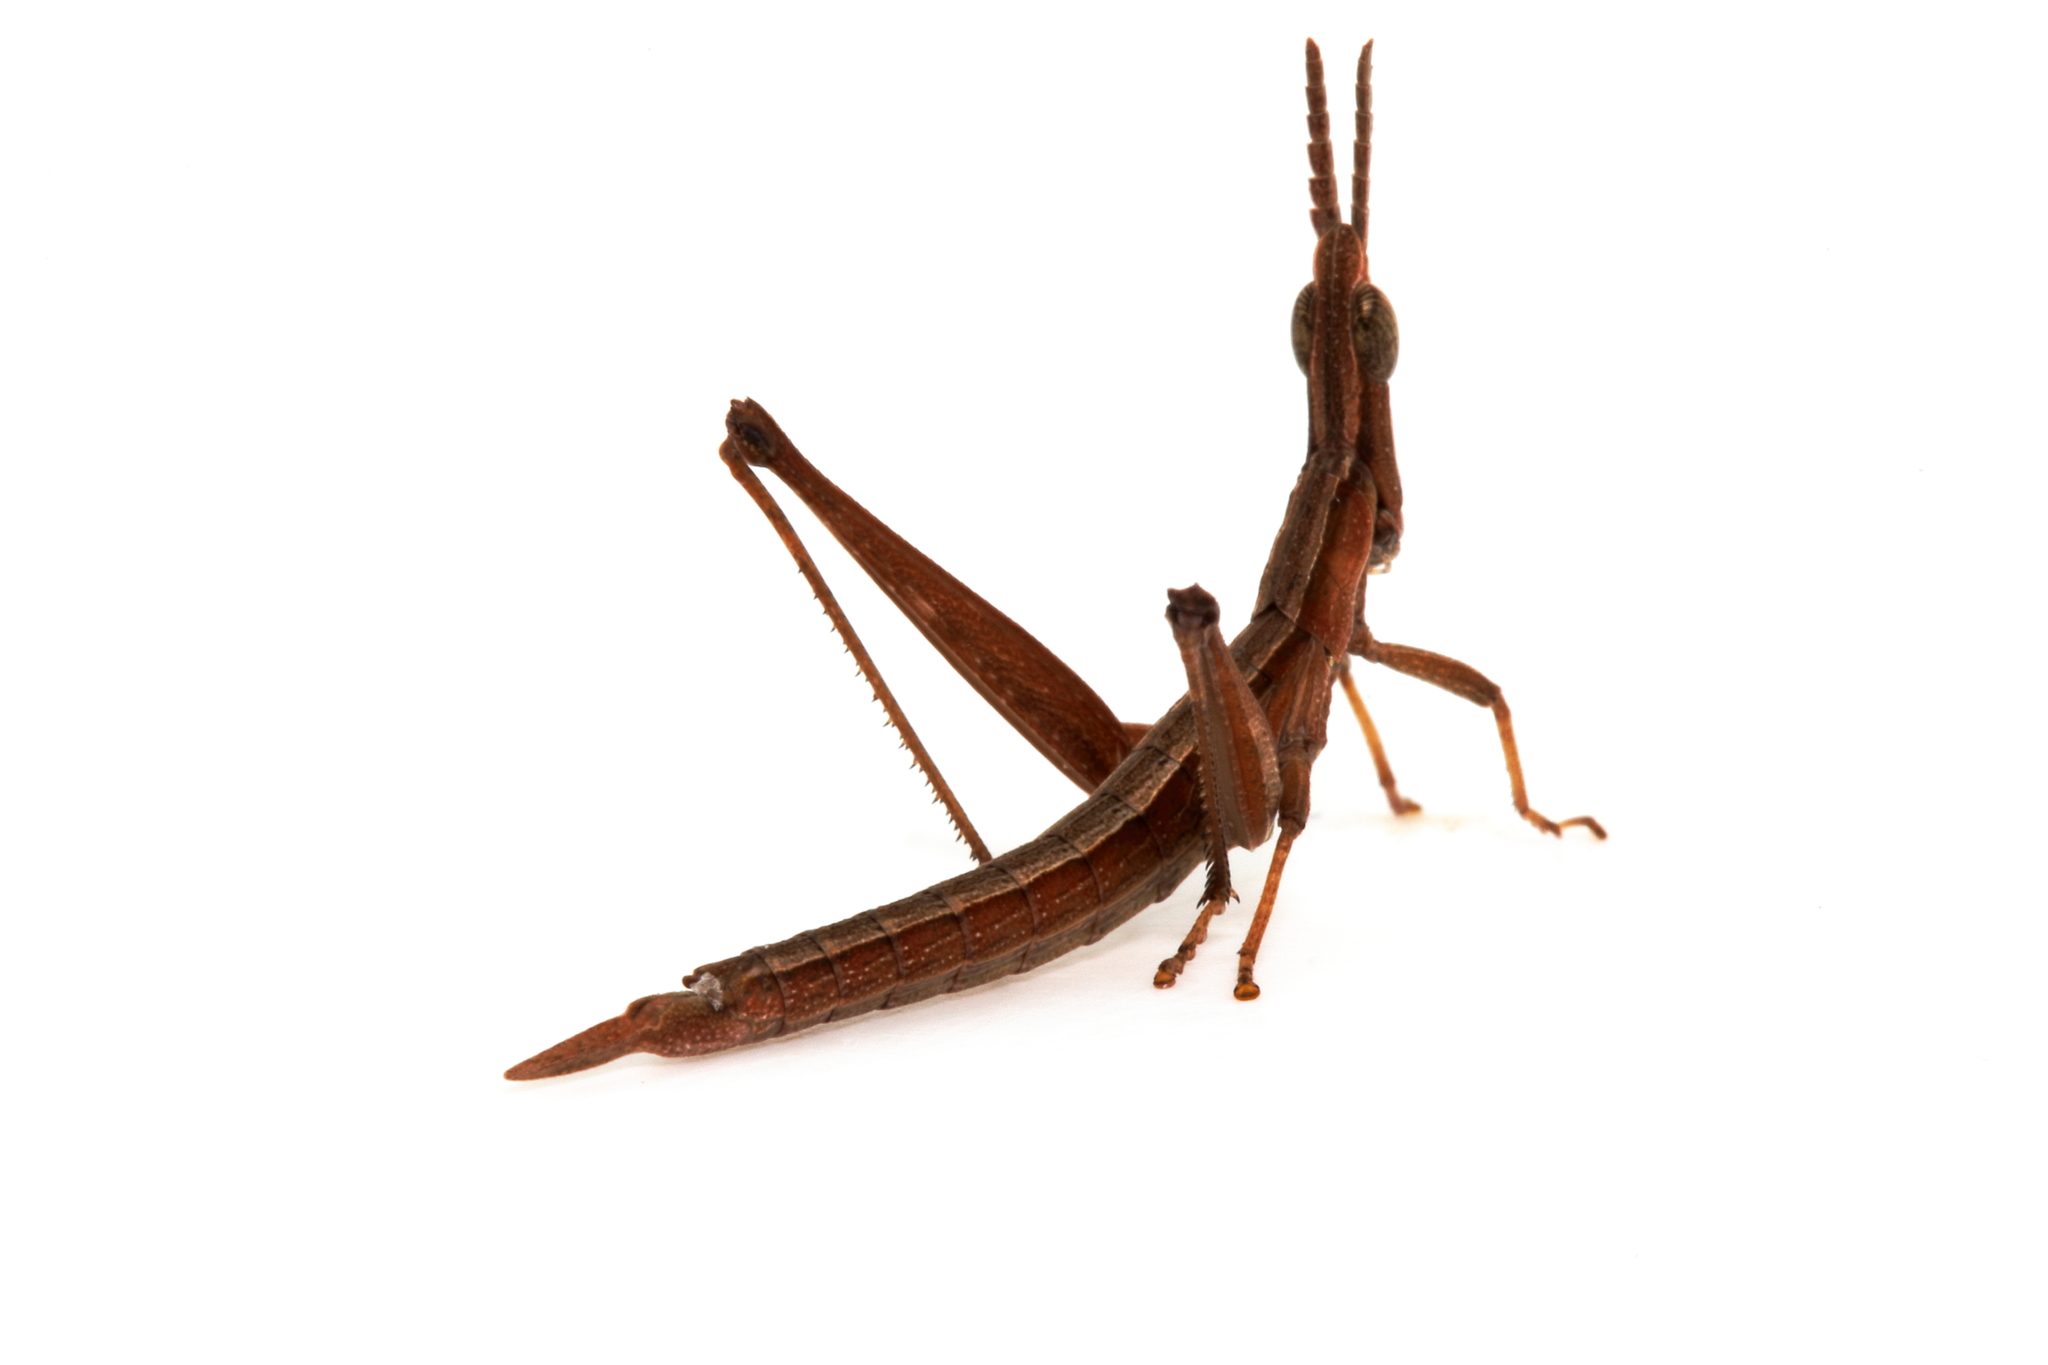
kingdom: Animalia
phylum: Arthropoda
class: Insecta
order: Orthoptera
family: Morabidae
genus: Keyacris
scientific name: Keyacris scurra
